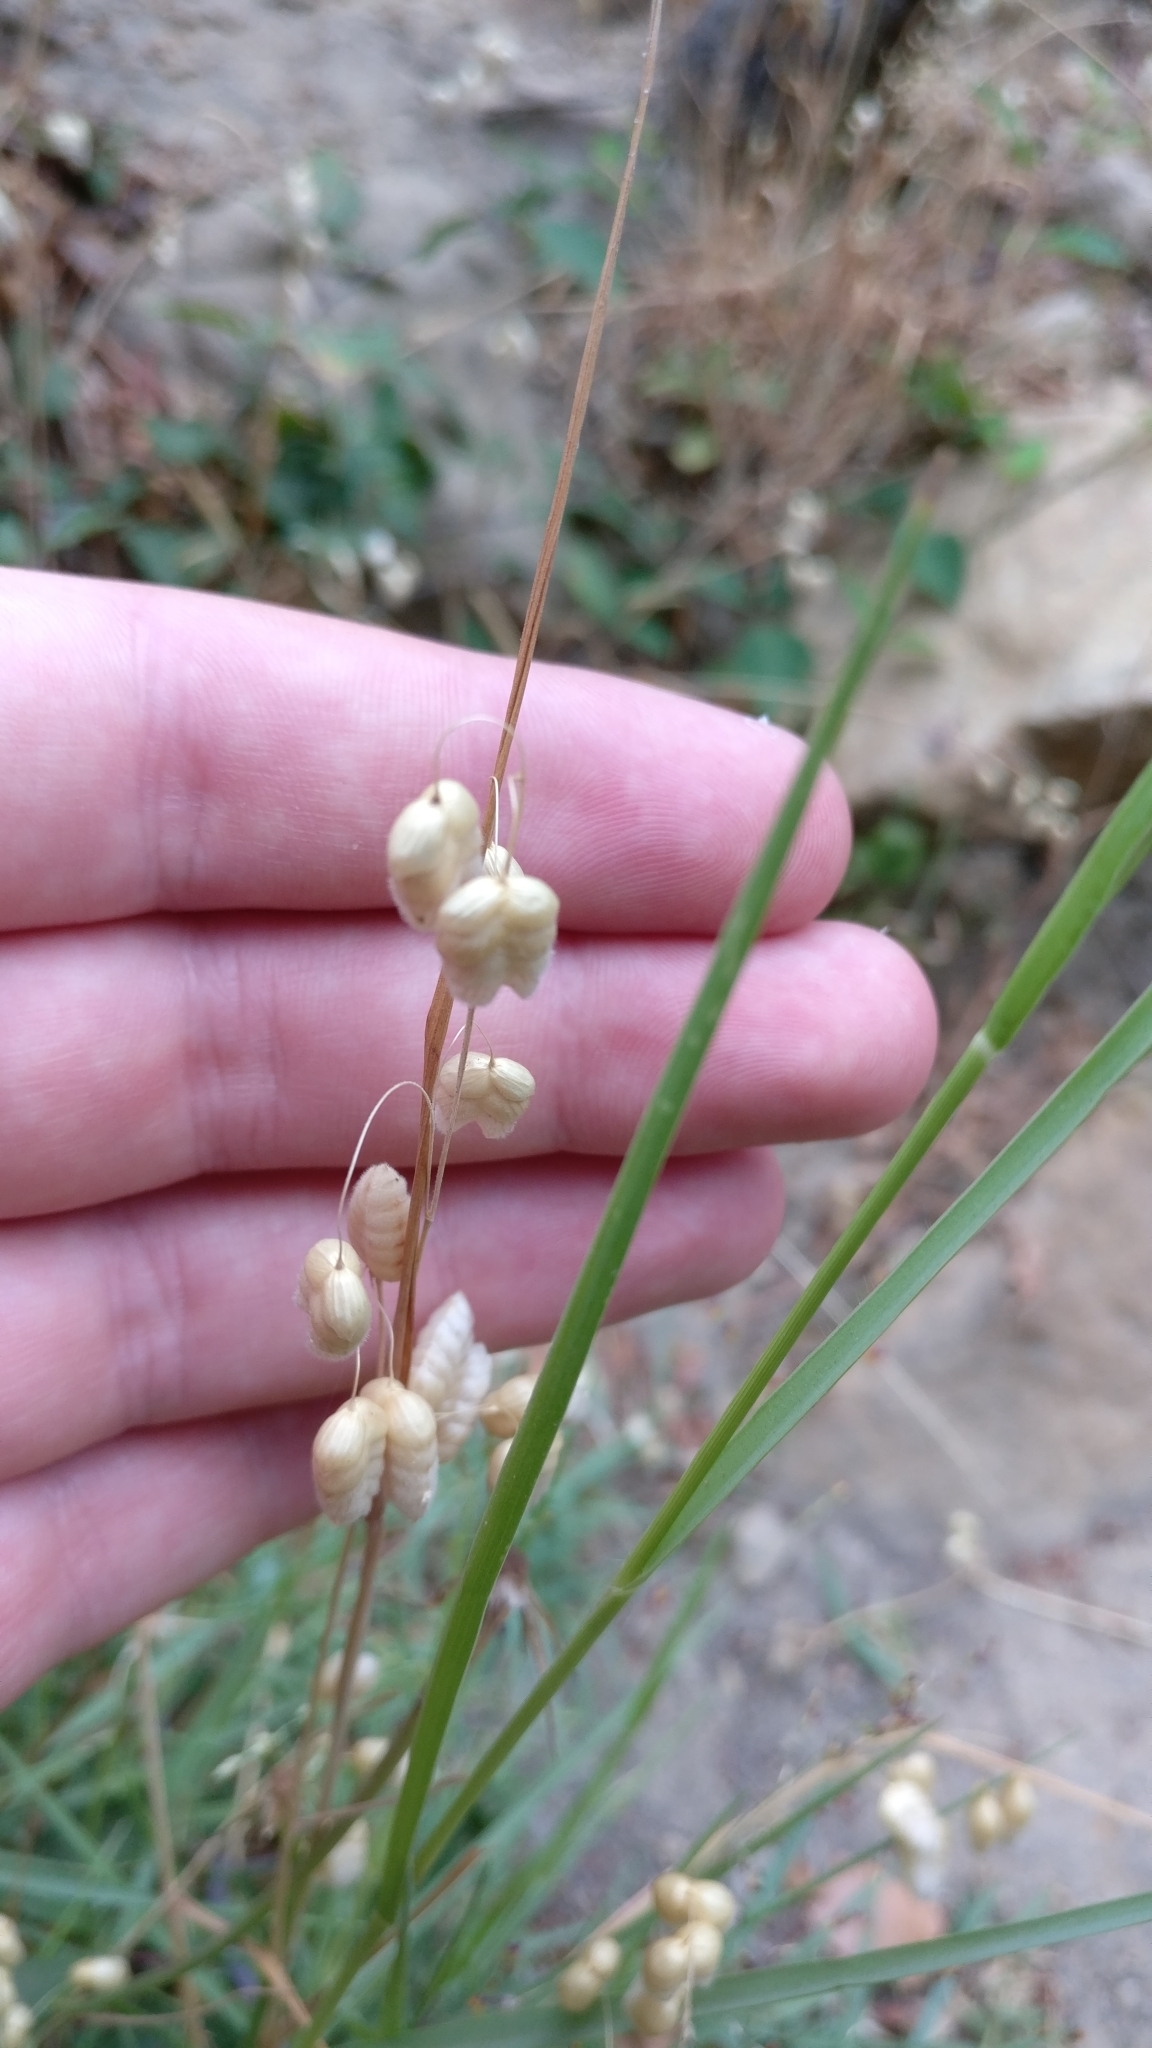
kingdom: Plantae
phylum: Tracheophyta
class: Liliopsida
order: Poales
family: Poaceae
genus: Briza
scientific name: Briza maxima
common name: Big quakinggrass
